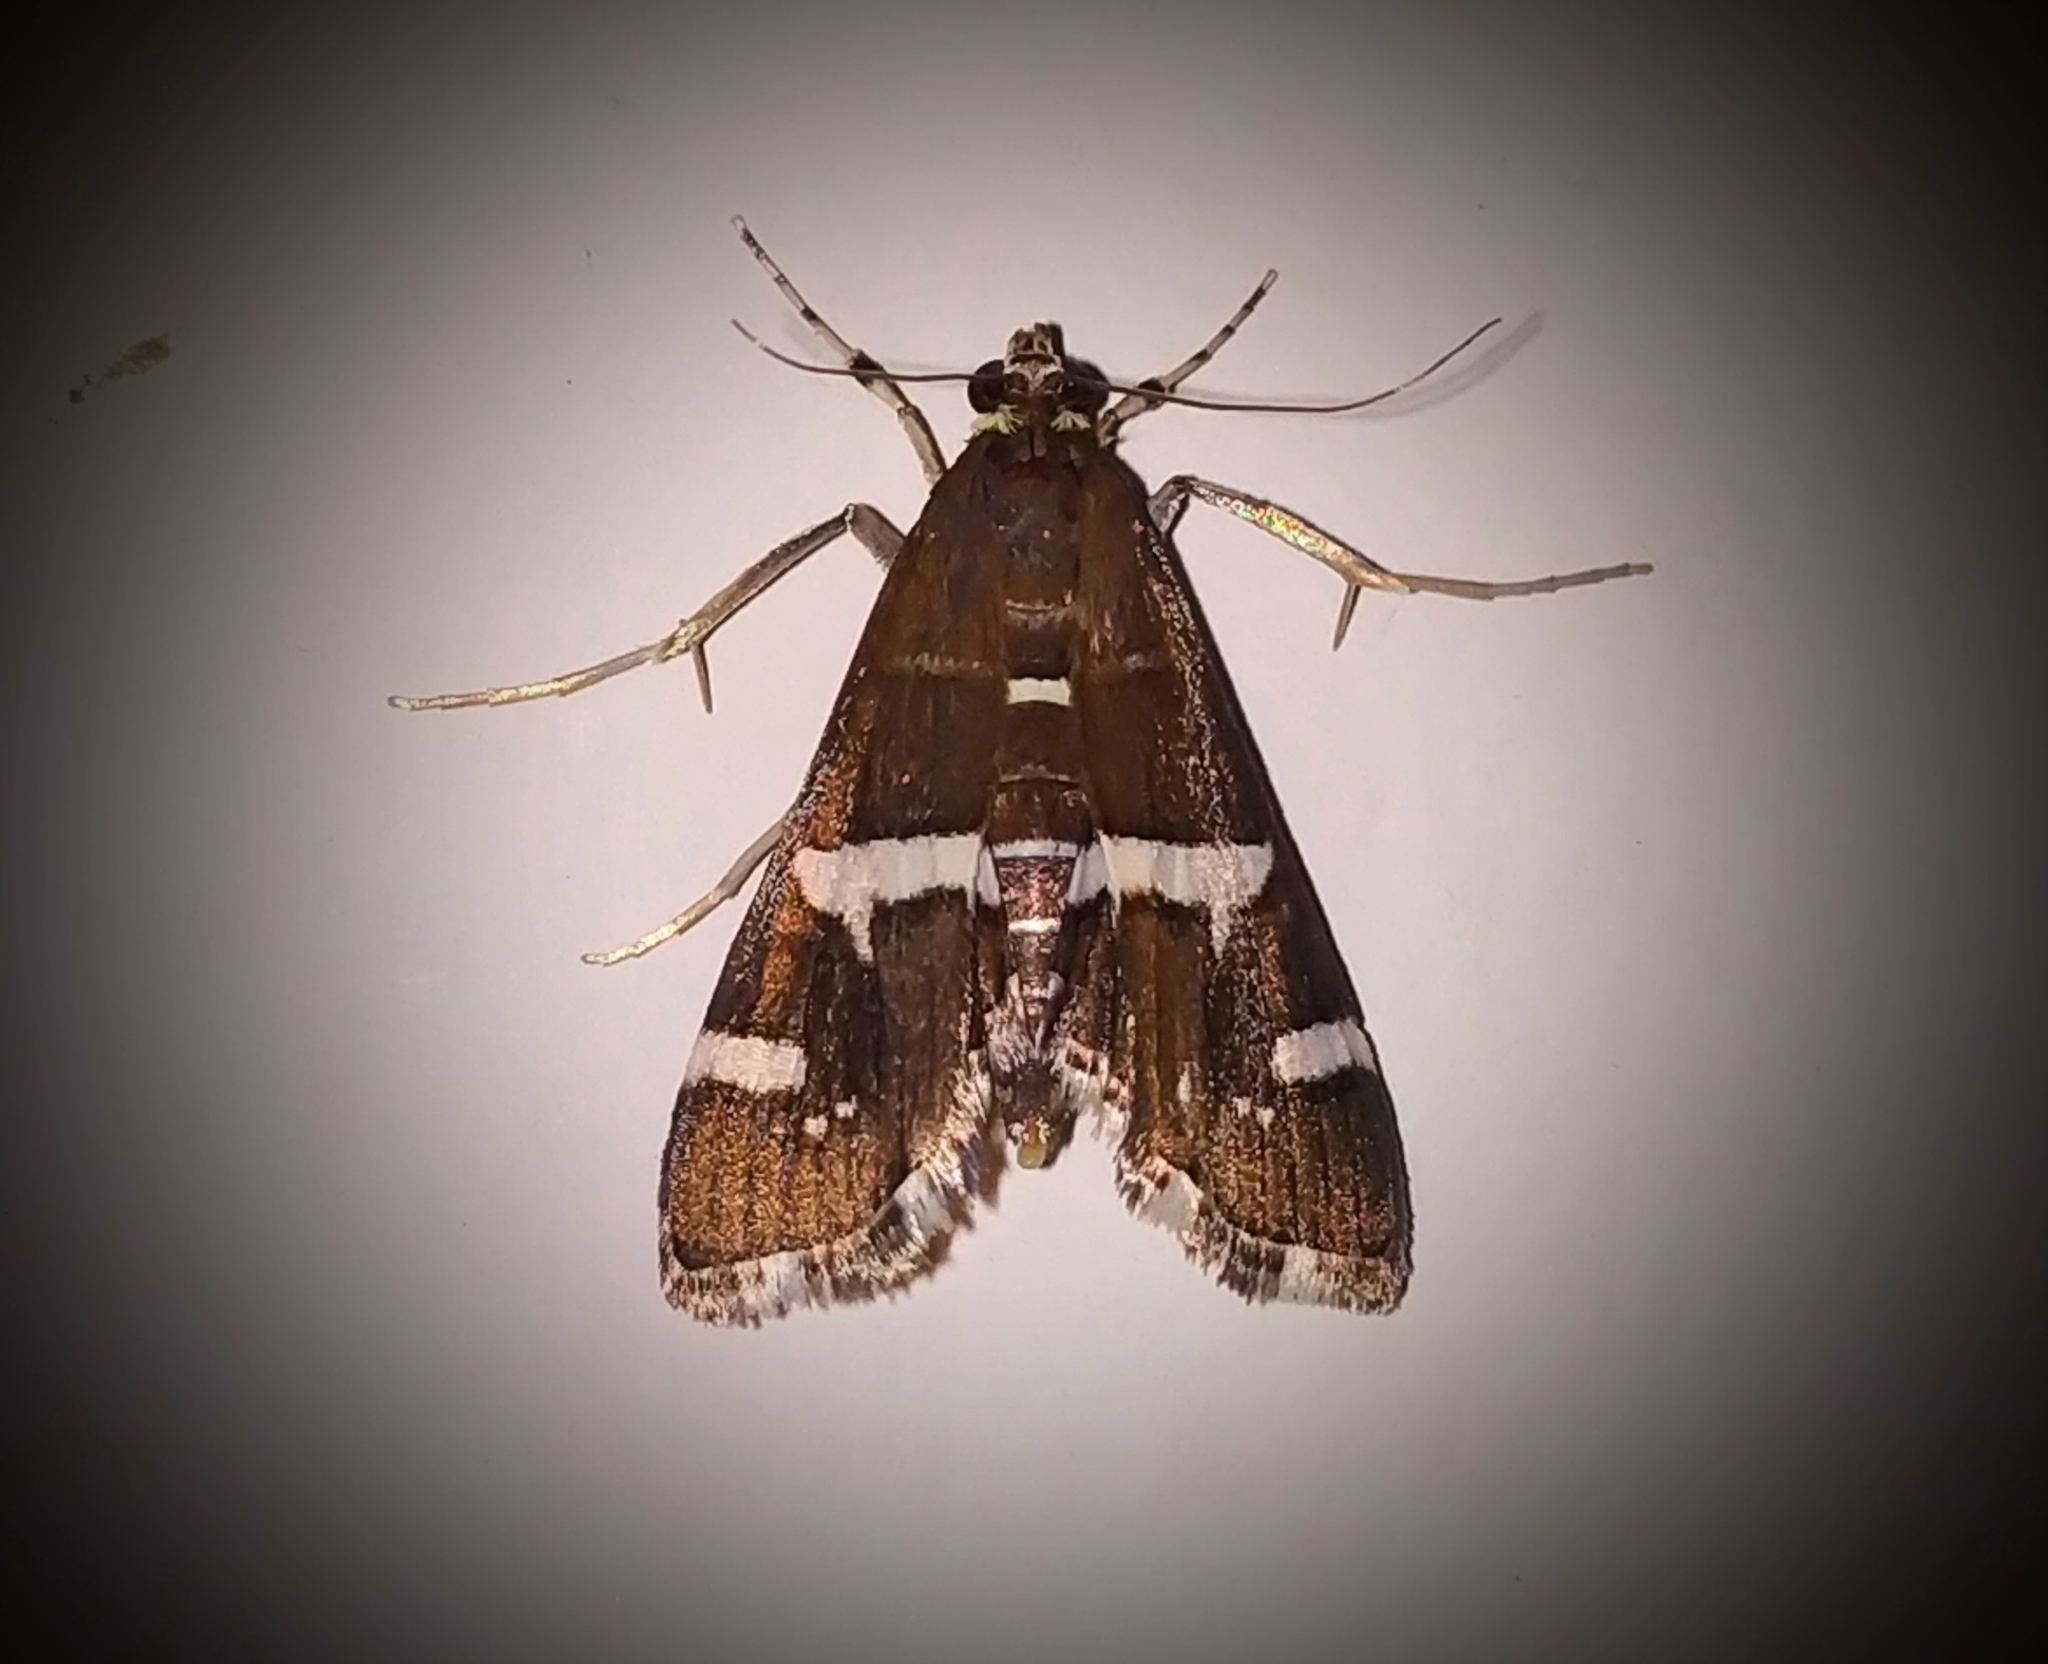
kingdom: Animalia
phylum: Arthropoda
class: Insecta
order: Lepidoptera
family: Crambidae
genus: Spoladea
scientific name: Spoladea recurvalis
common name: Beet webworm moth
